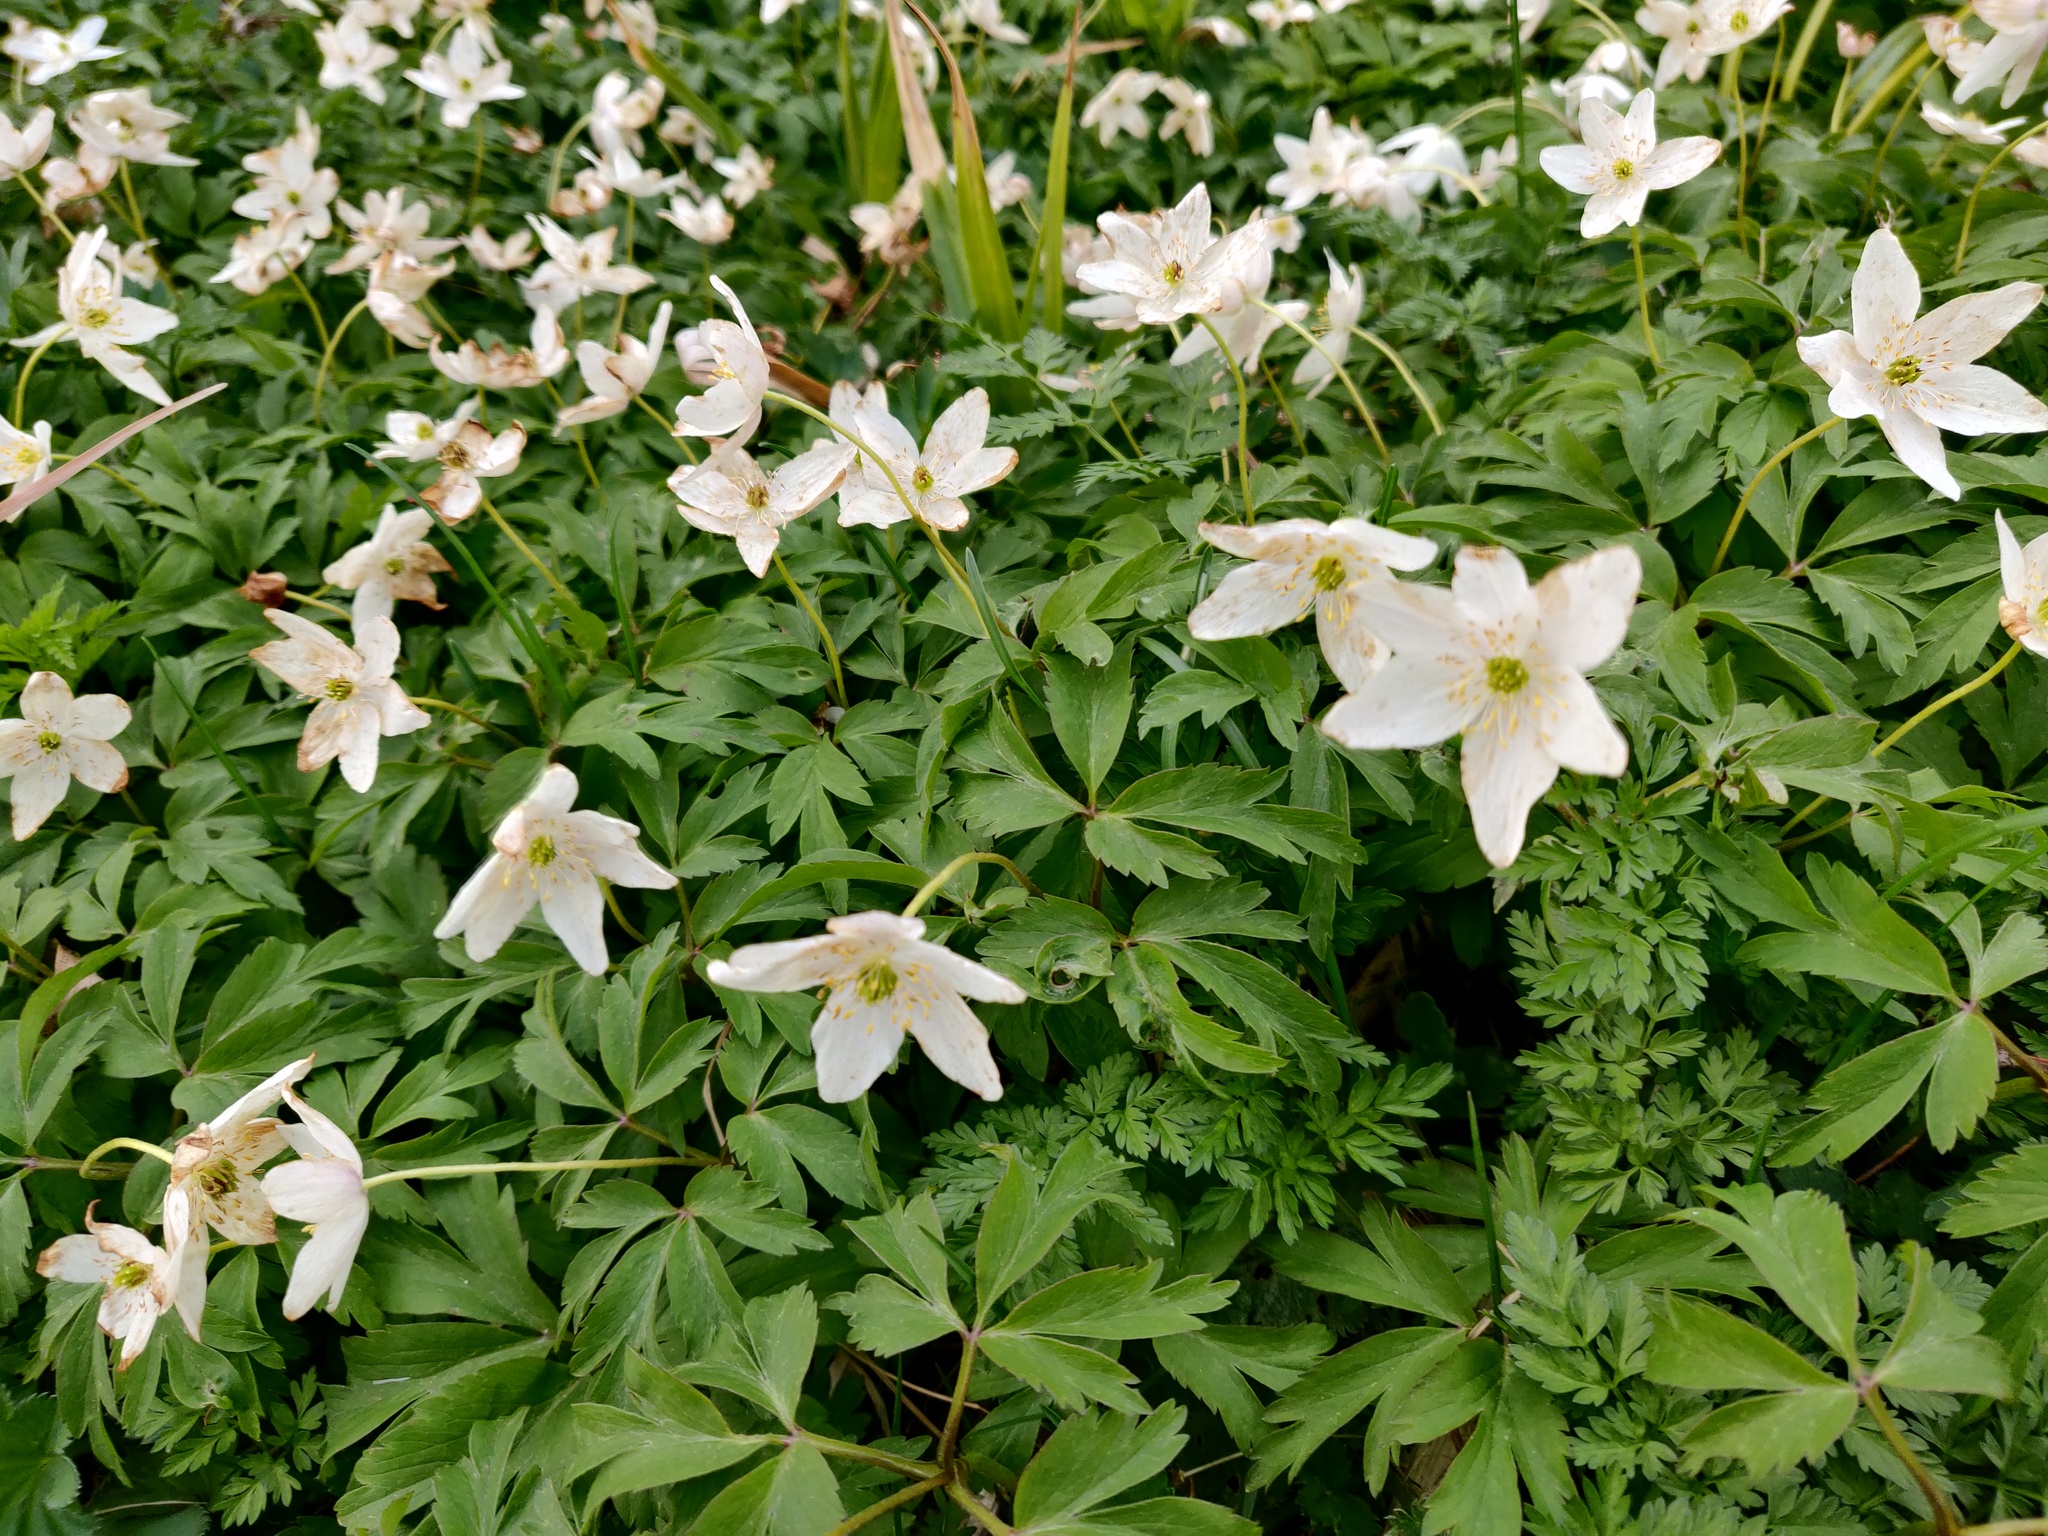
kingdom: Plantae
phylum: Tracheophyta
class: Magnoliopsida
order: Ranunculales
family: Ranunculaceae
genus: Anemone
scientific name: Anemone nemorosa
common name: Wood anemone
